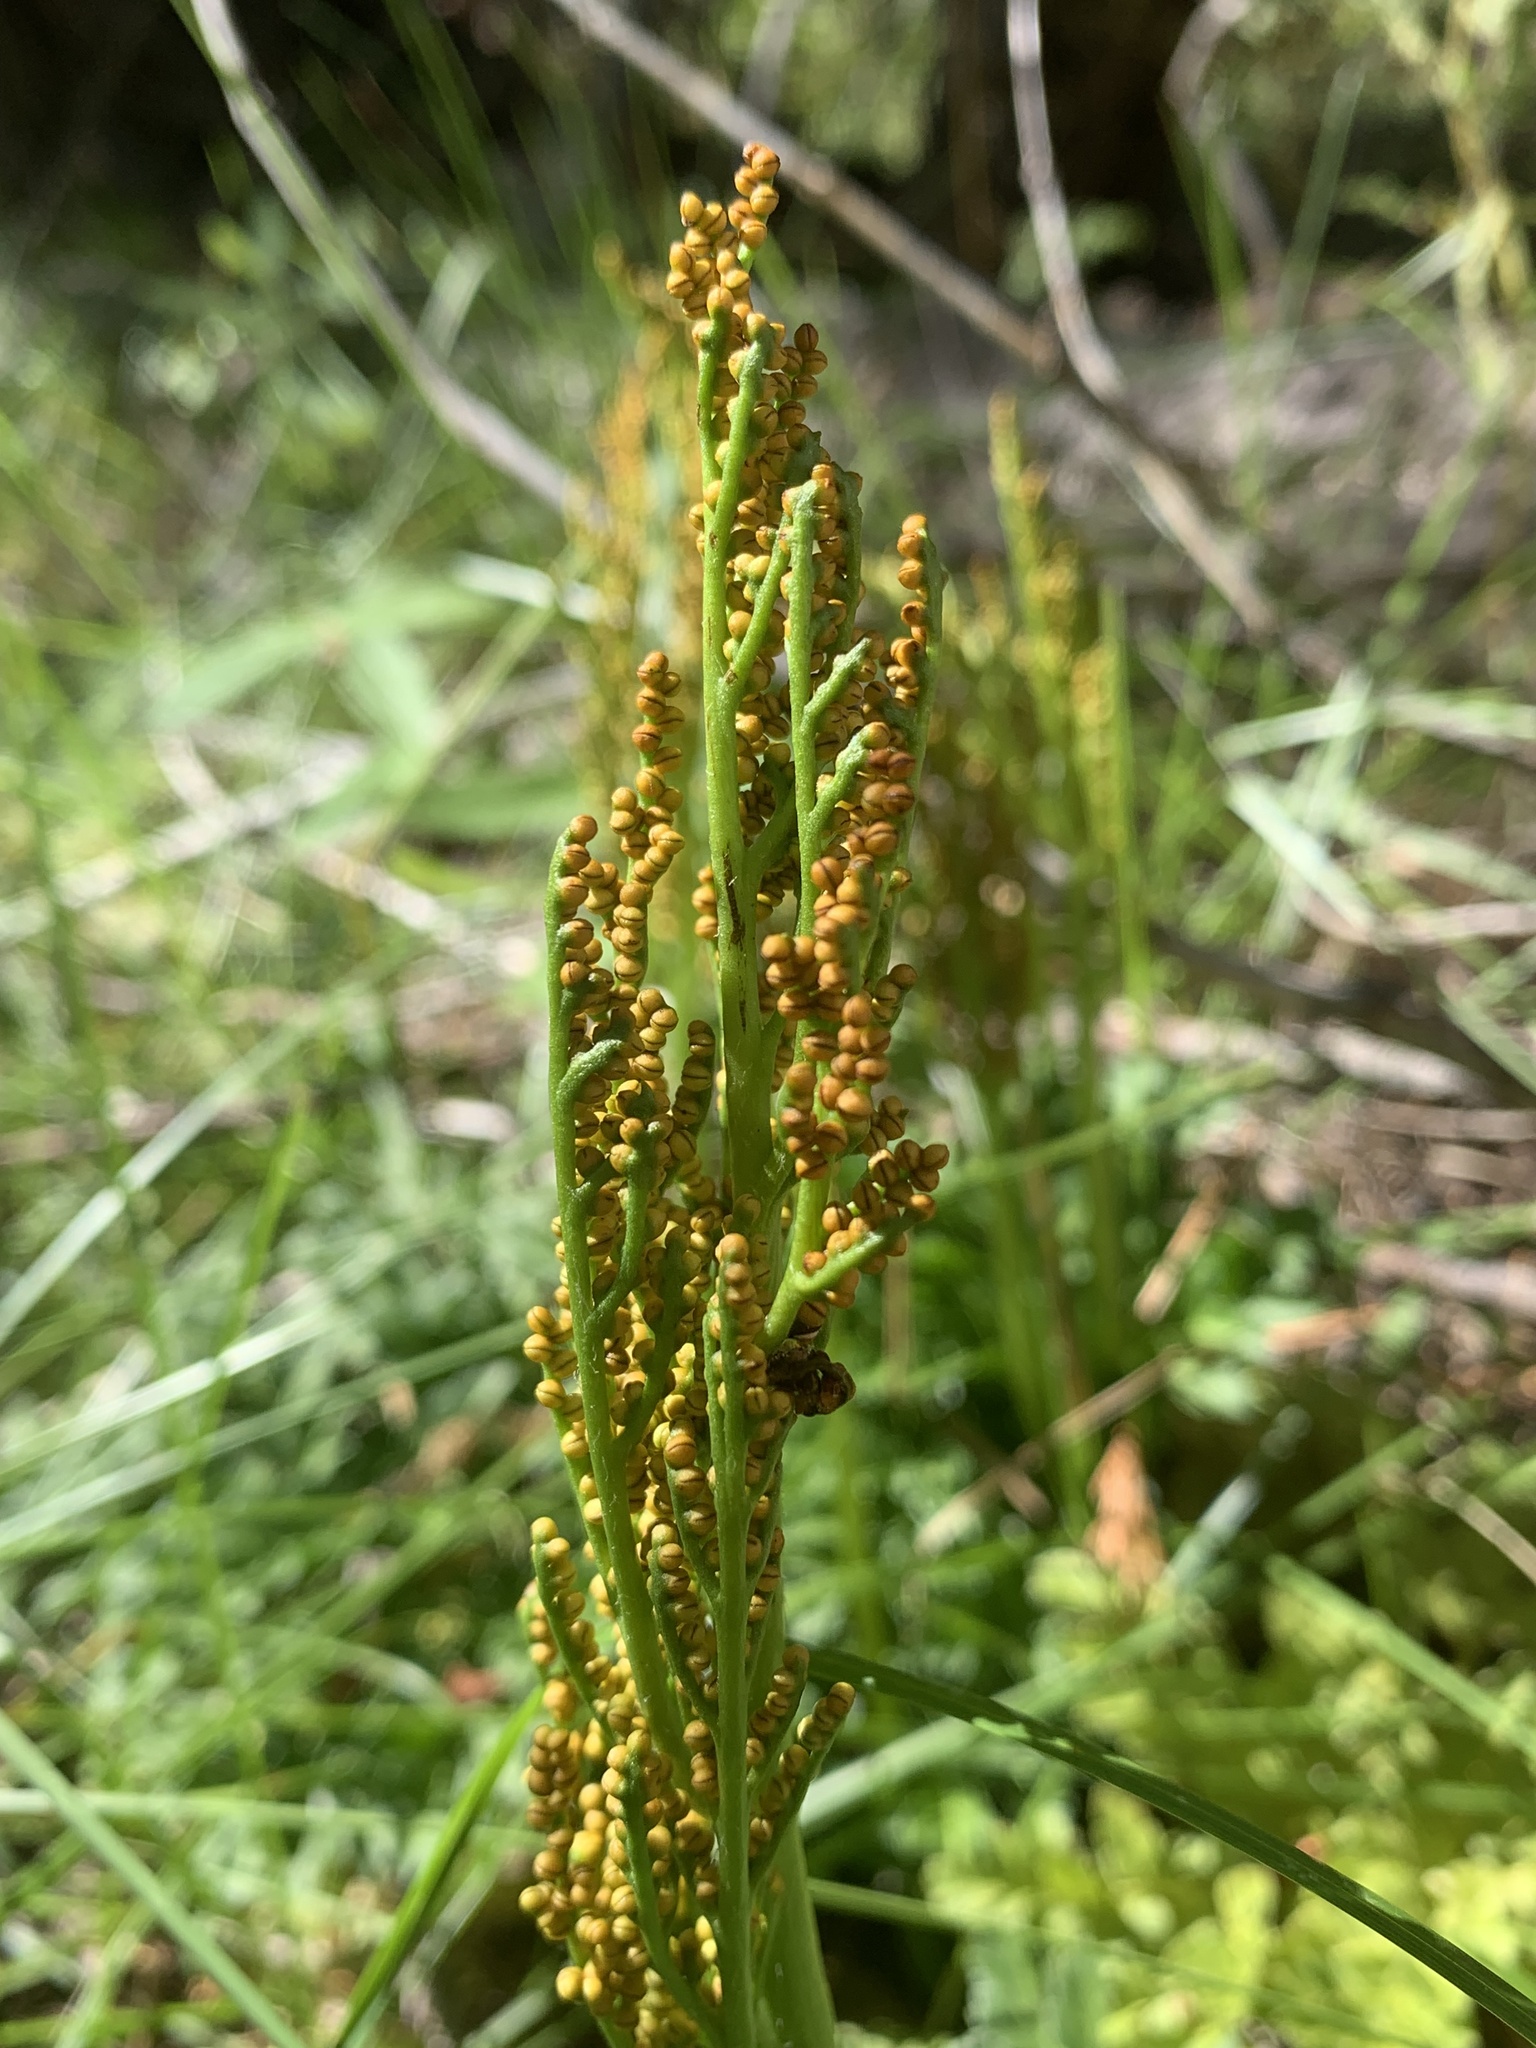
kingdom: Plantae
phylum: Tracheophyta
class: Polypodiopsida
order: Ophioglossales
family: Ophioglossaceae
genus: Sceptridium
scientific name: Sceptridium multifidum
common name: Leathery grape fern
